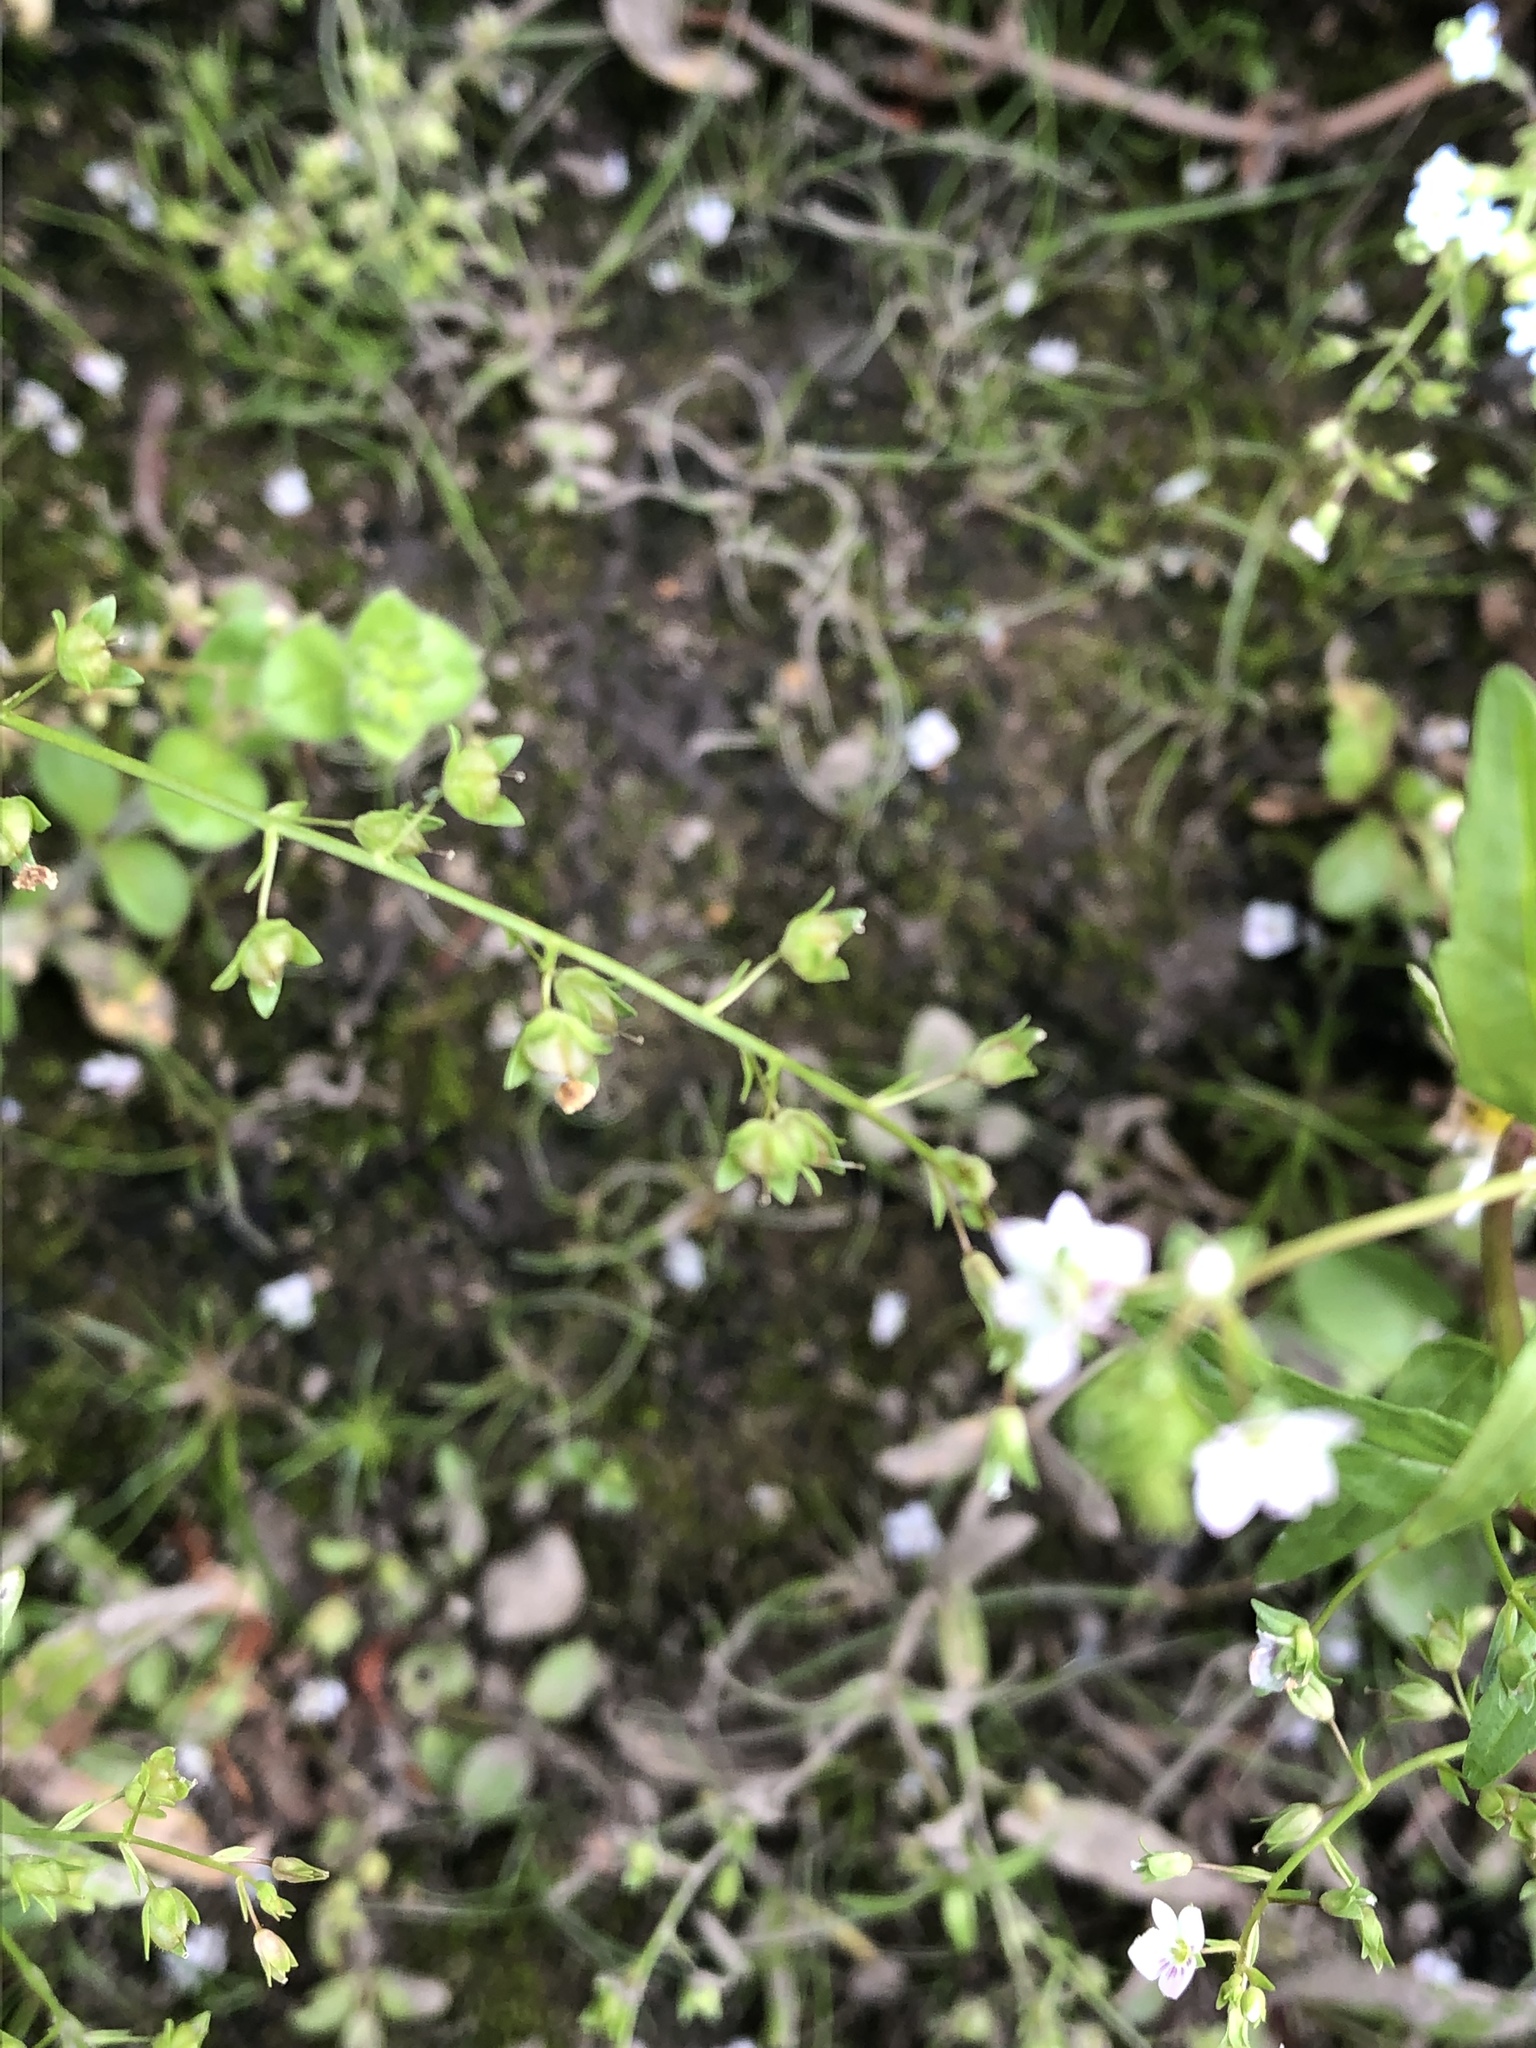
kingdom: Plantae
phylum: Tracheophyta
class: Magnoliopsida
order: Lamiales
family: Plantaginaceae
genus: Veronica
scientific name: Veronica catenata
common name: Pink water-speedwell
